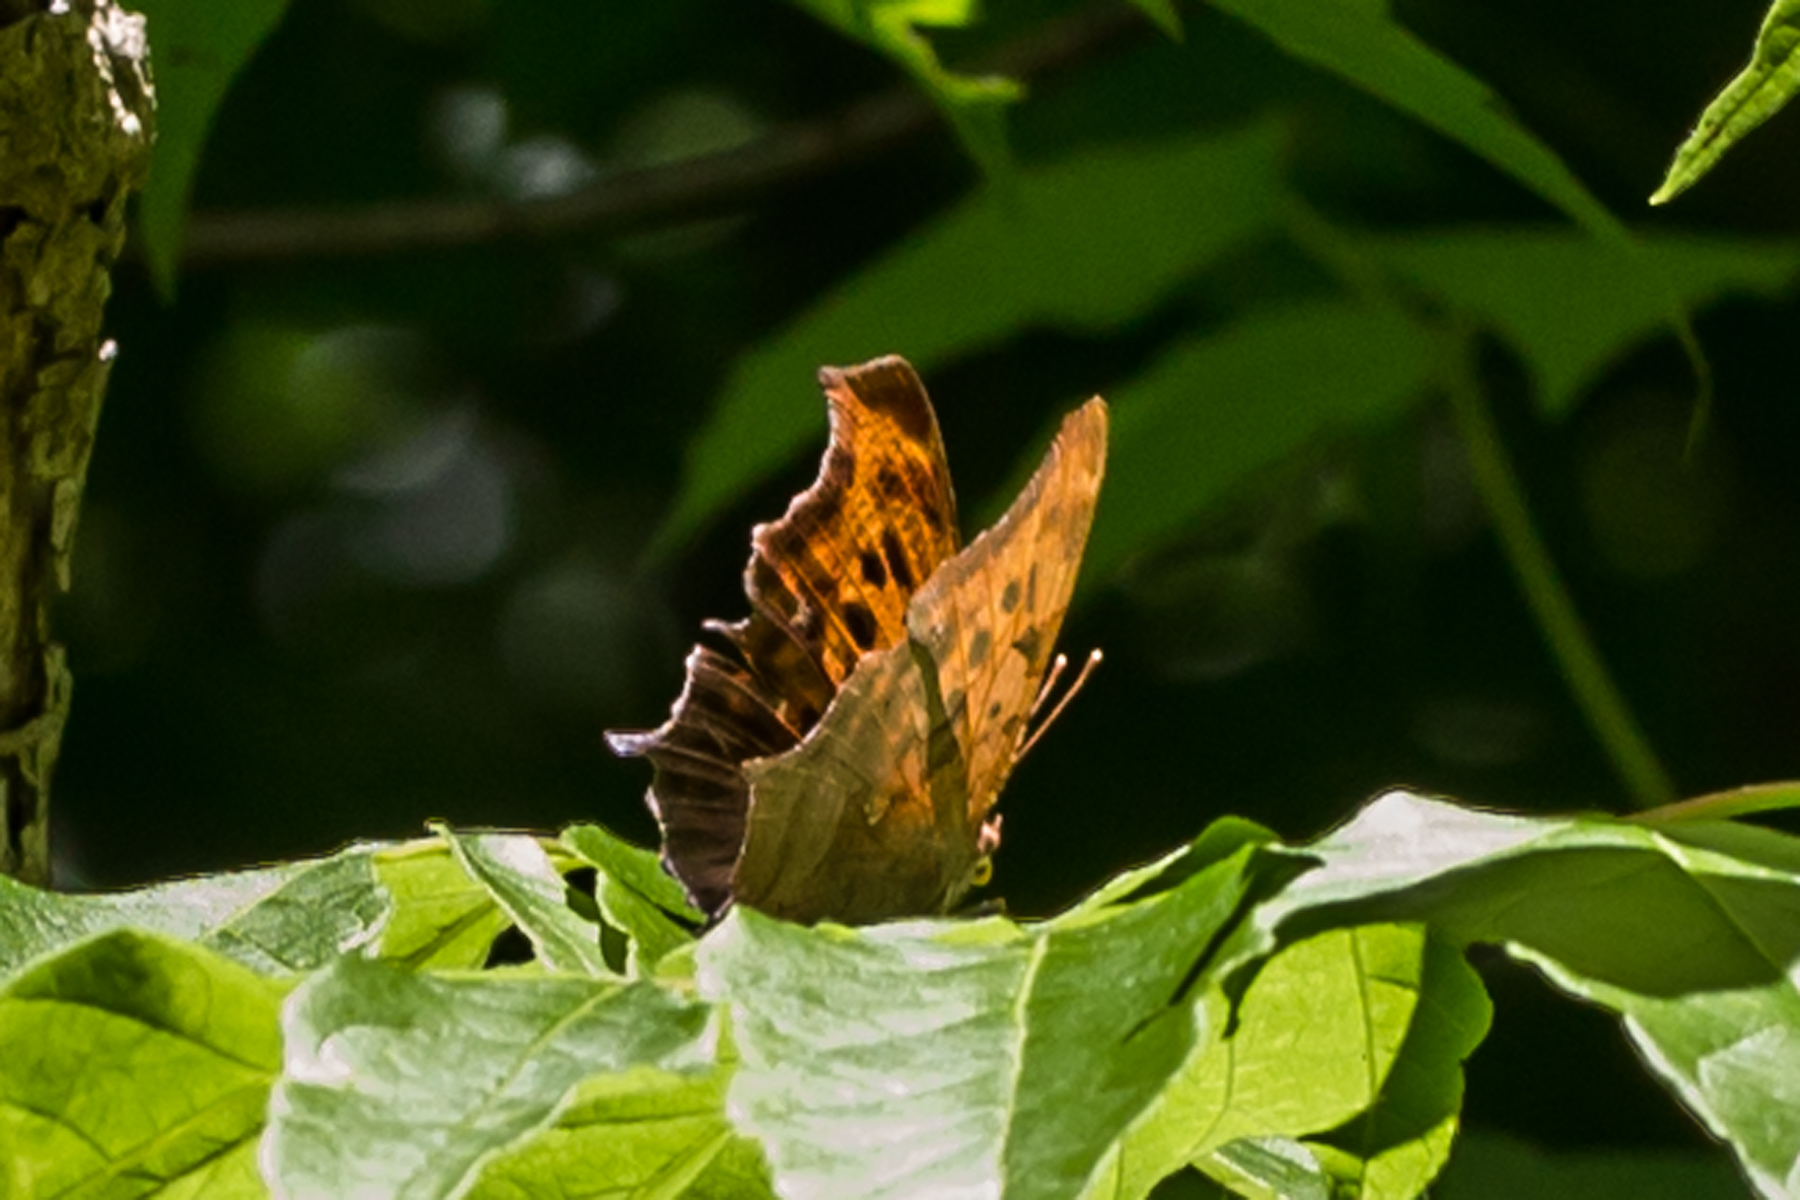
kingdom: Animalia
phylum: Arthropoda
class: Insecta
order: Lepidoptera
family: Nymphalidae
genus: Polygonia
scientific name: Polygonia interrogationis
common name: Question mark
